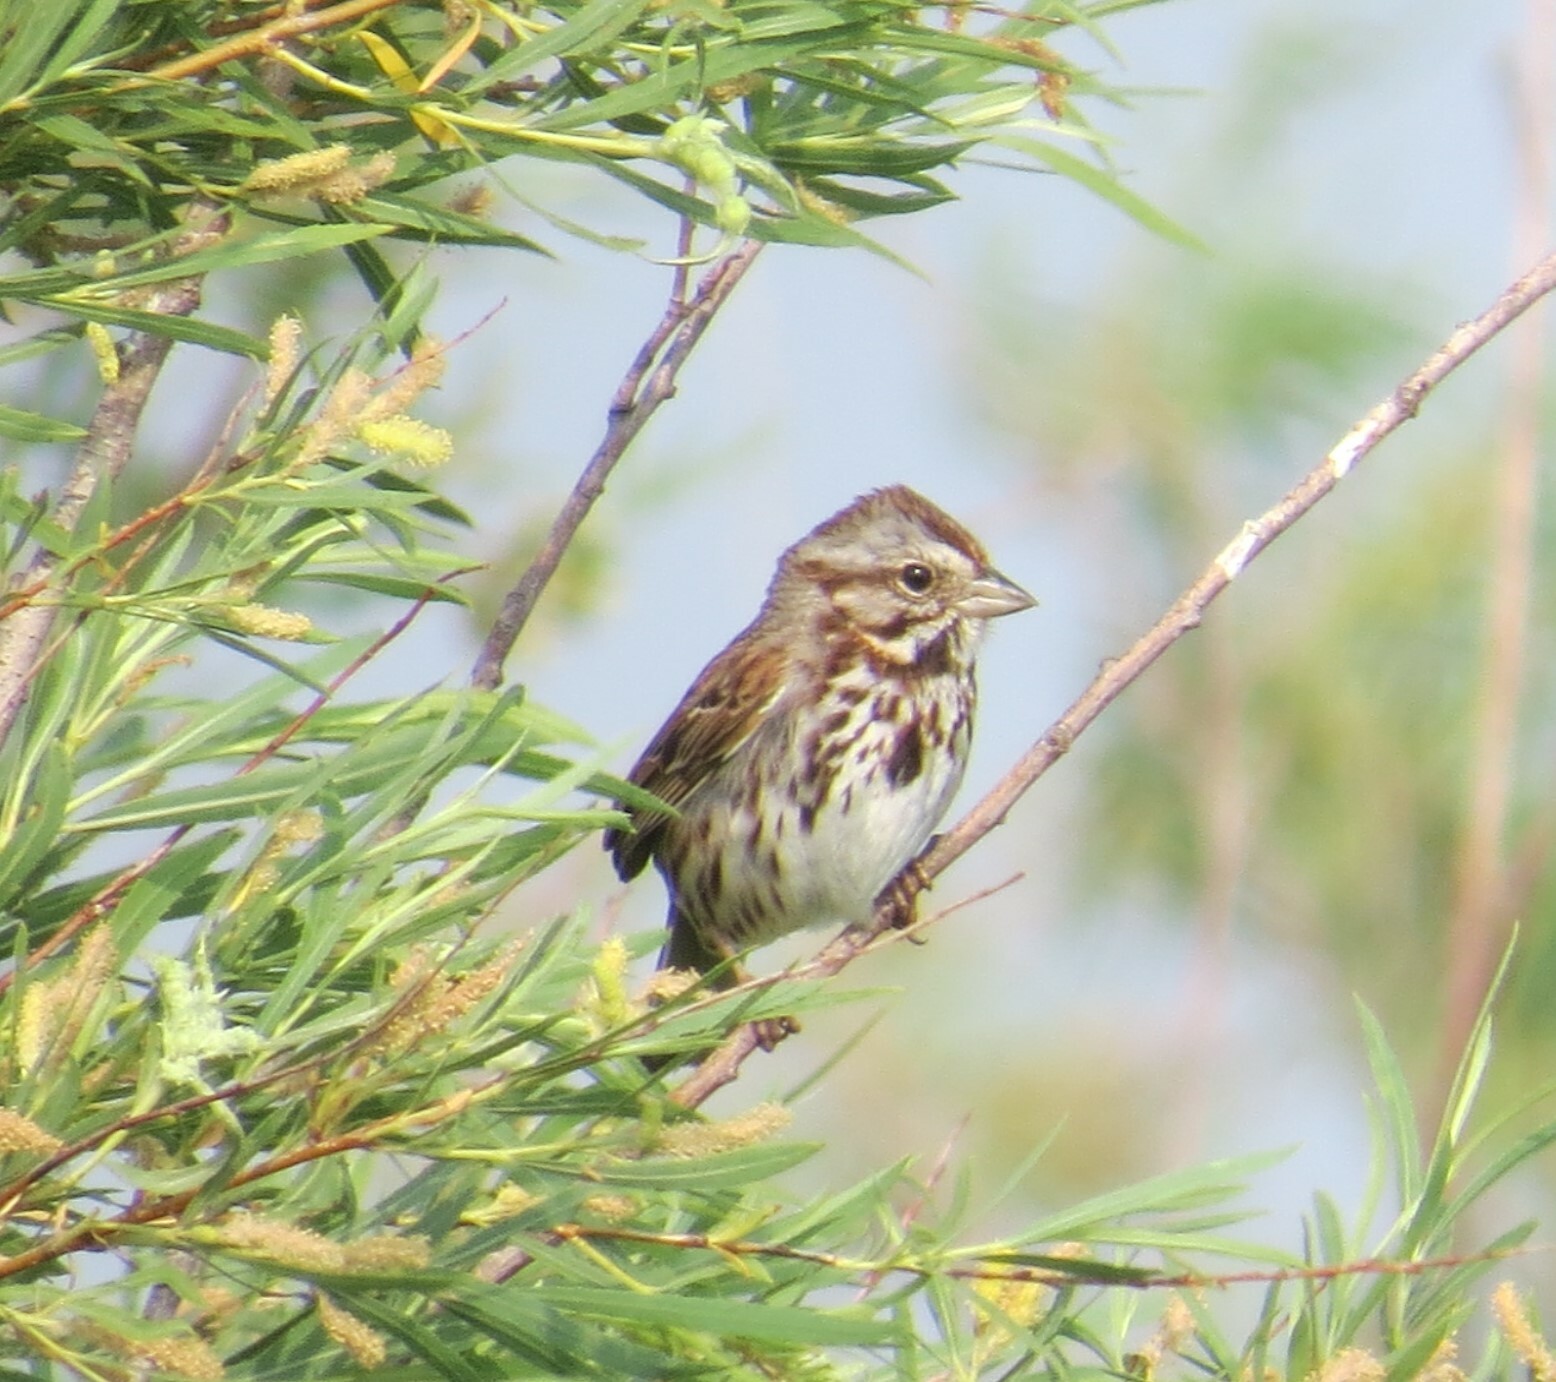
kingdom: Animalia
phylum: Chordata
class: Aves
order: Passeriformes
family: Passerellidae
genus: Melospiza
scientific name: Melospiza melodia
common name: Song sparrow
